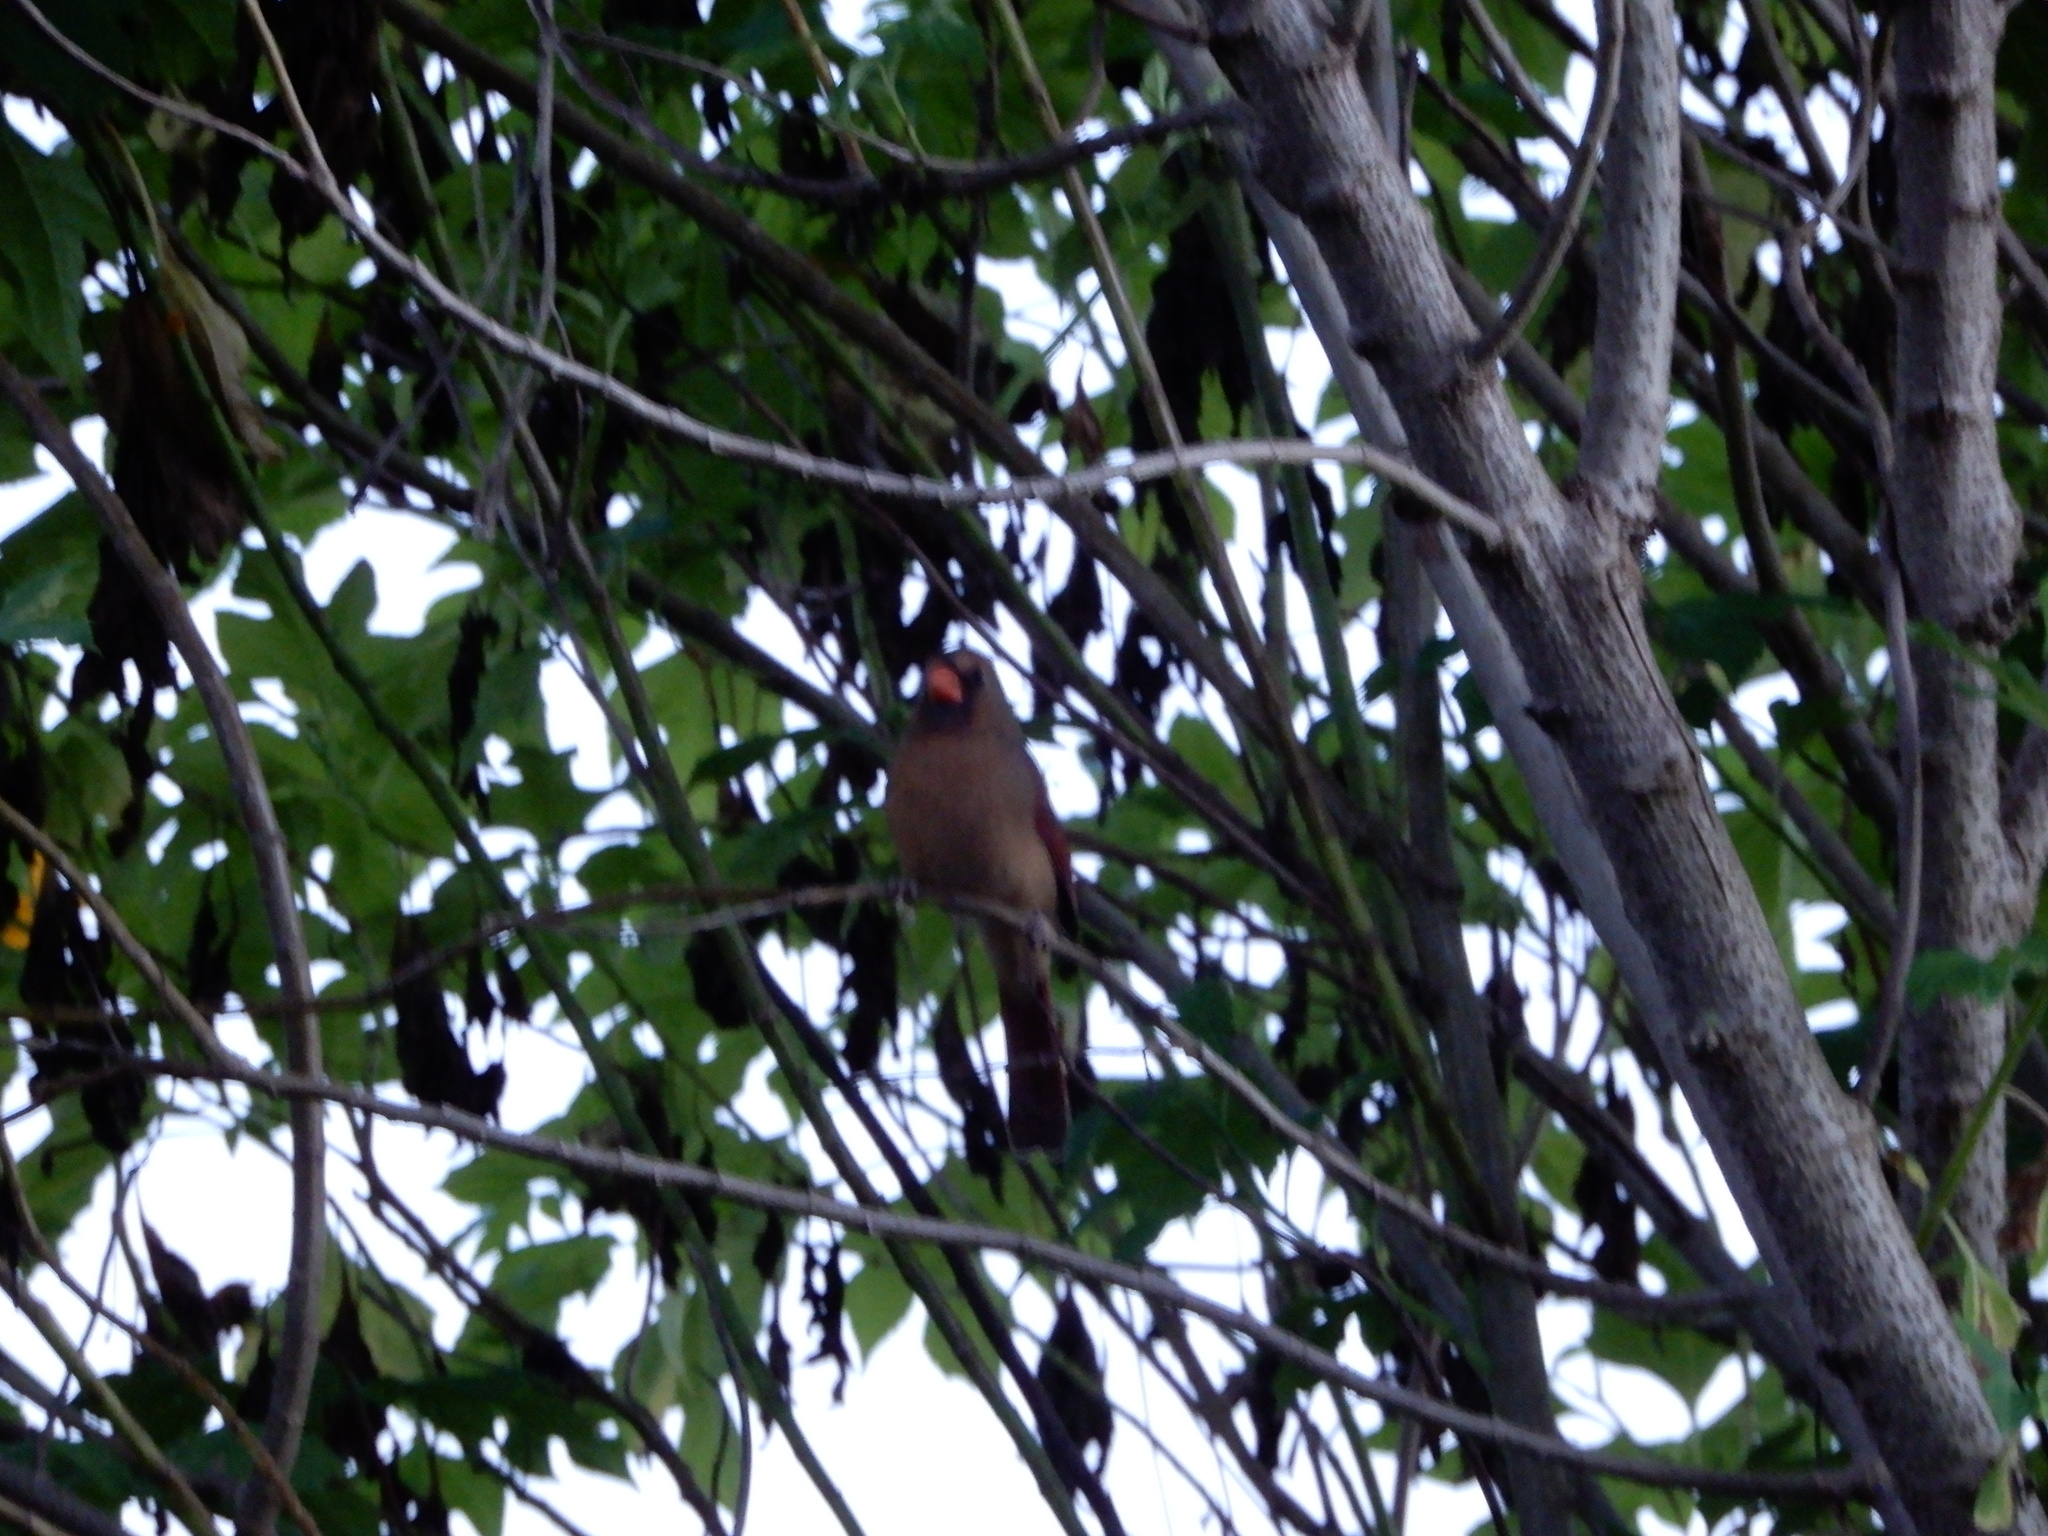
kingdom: Animalia
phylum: Chordata
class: Aves
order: Passeriformes
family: Cardinalidae
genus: Cardinalis
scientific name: Cardinalis cardinalis
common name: Northern cardinal
